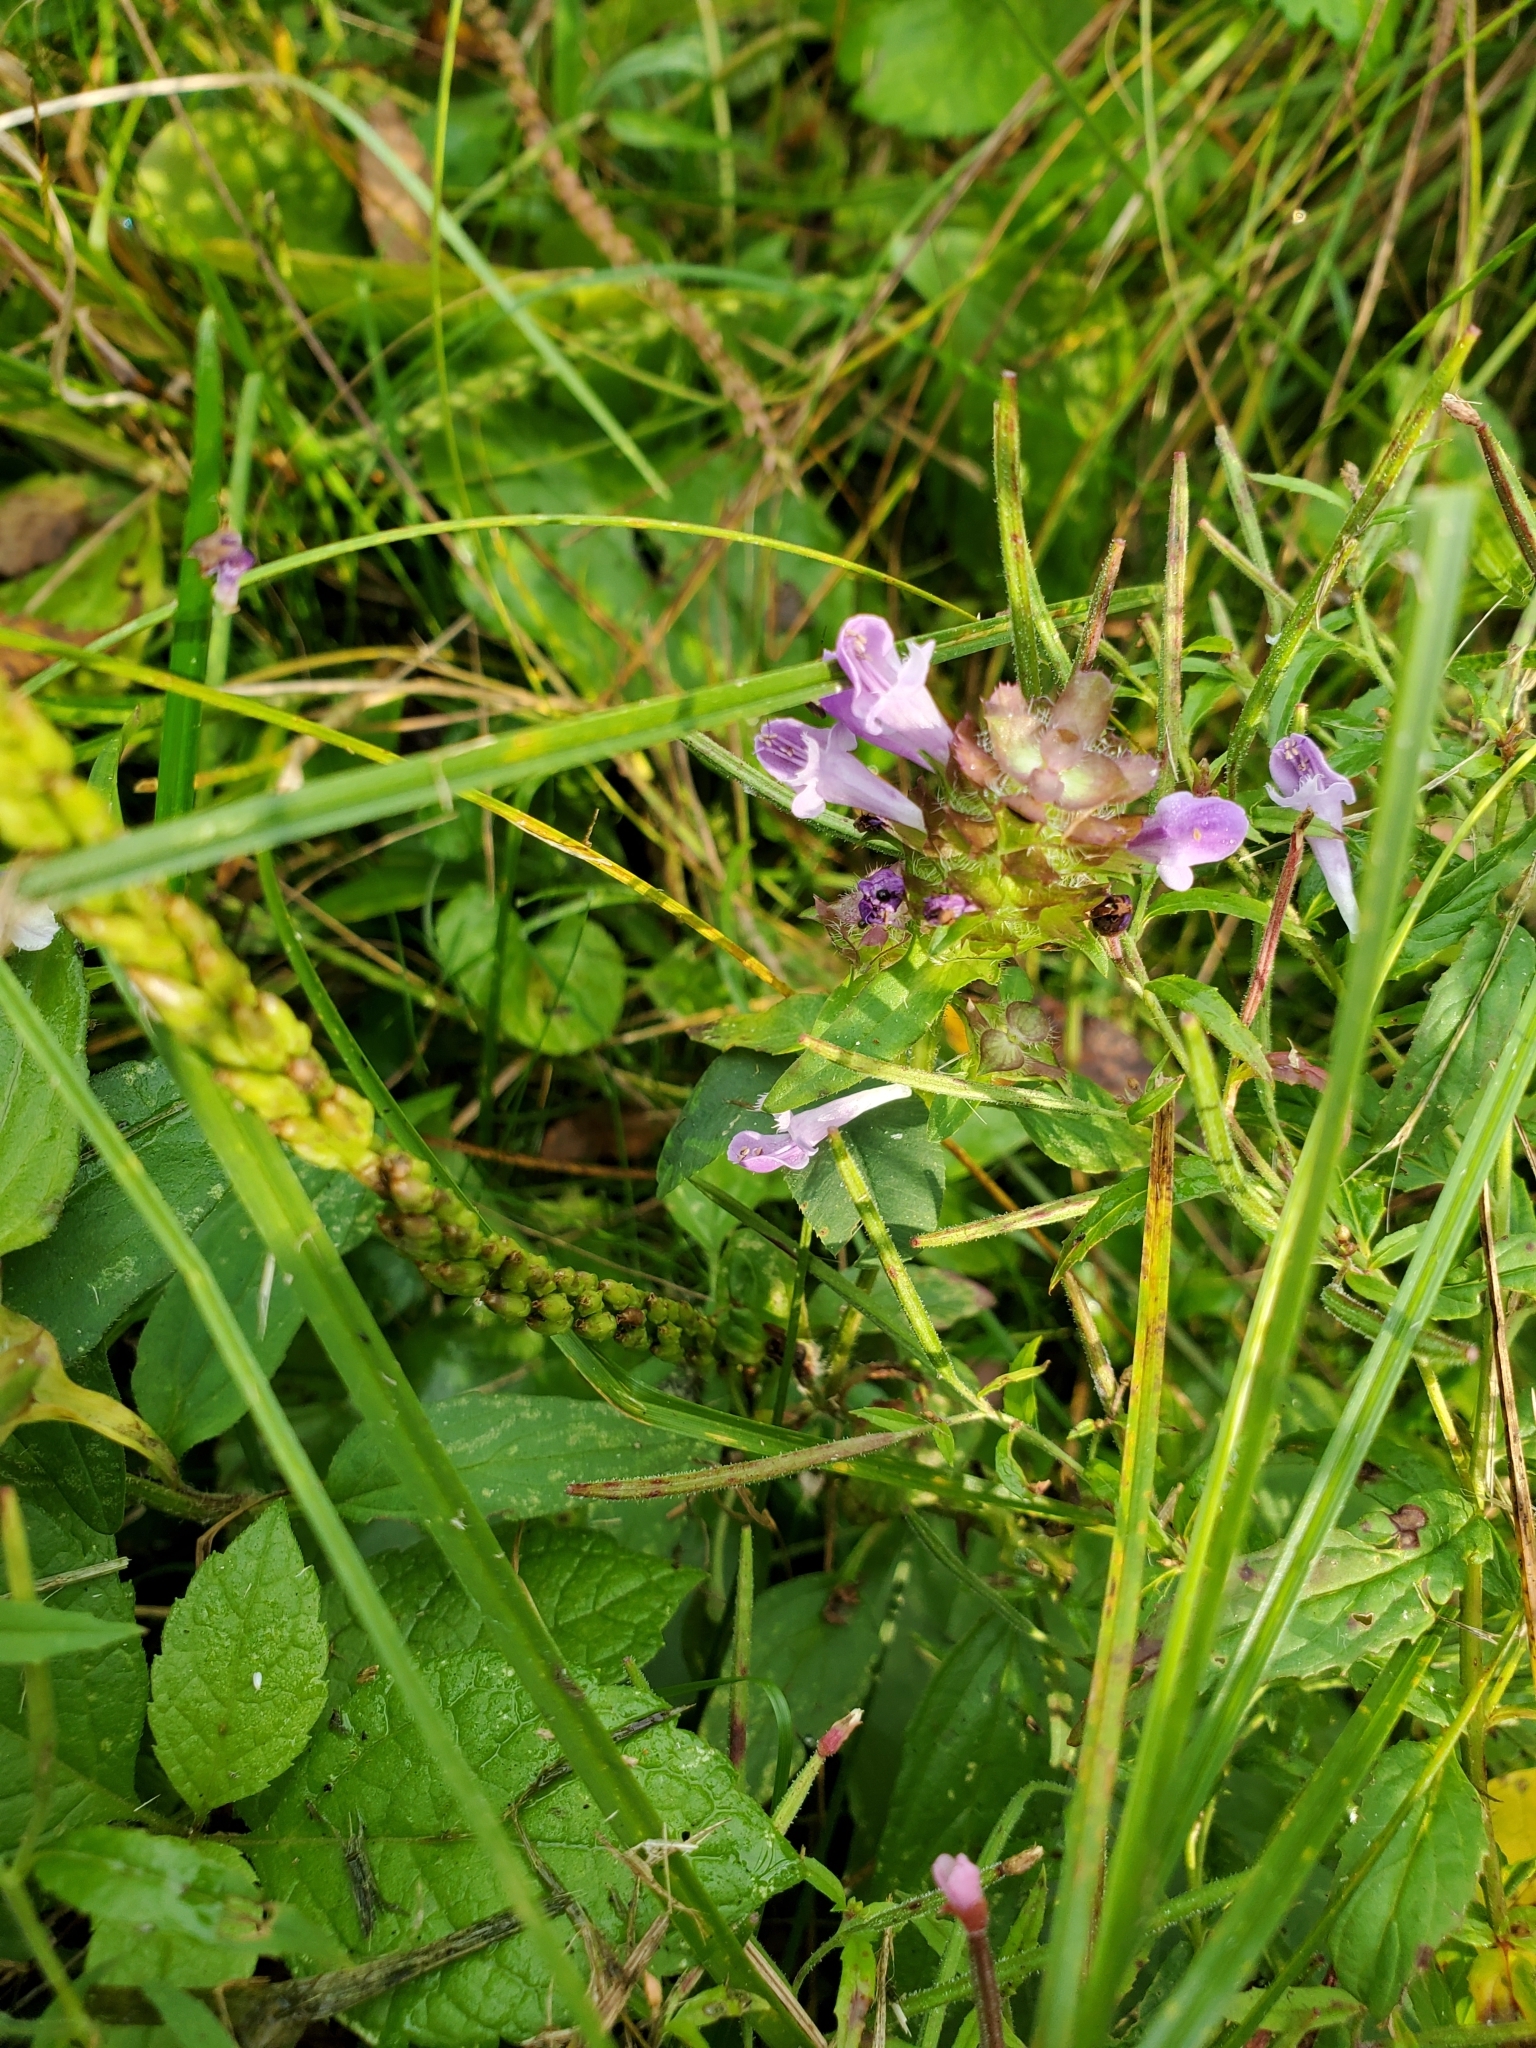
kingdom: Plantae
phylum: Tracheophyta
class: Magnoliopsida
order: Lamiales
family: Lamiaceae
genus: Prunella
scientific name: Prunella vulgaris
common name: Heal-all
